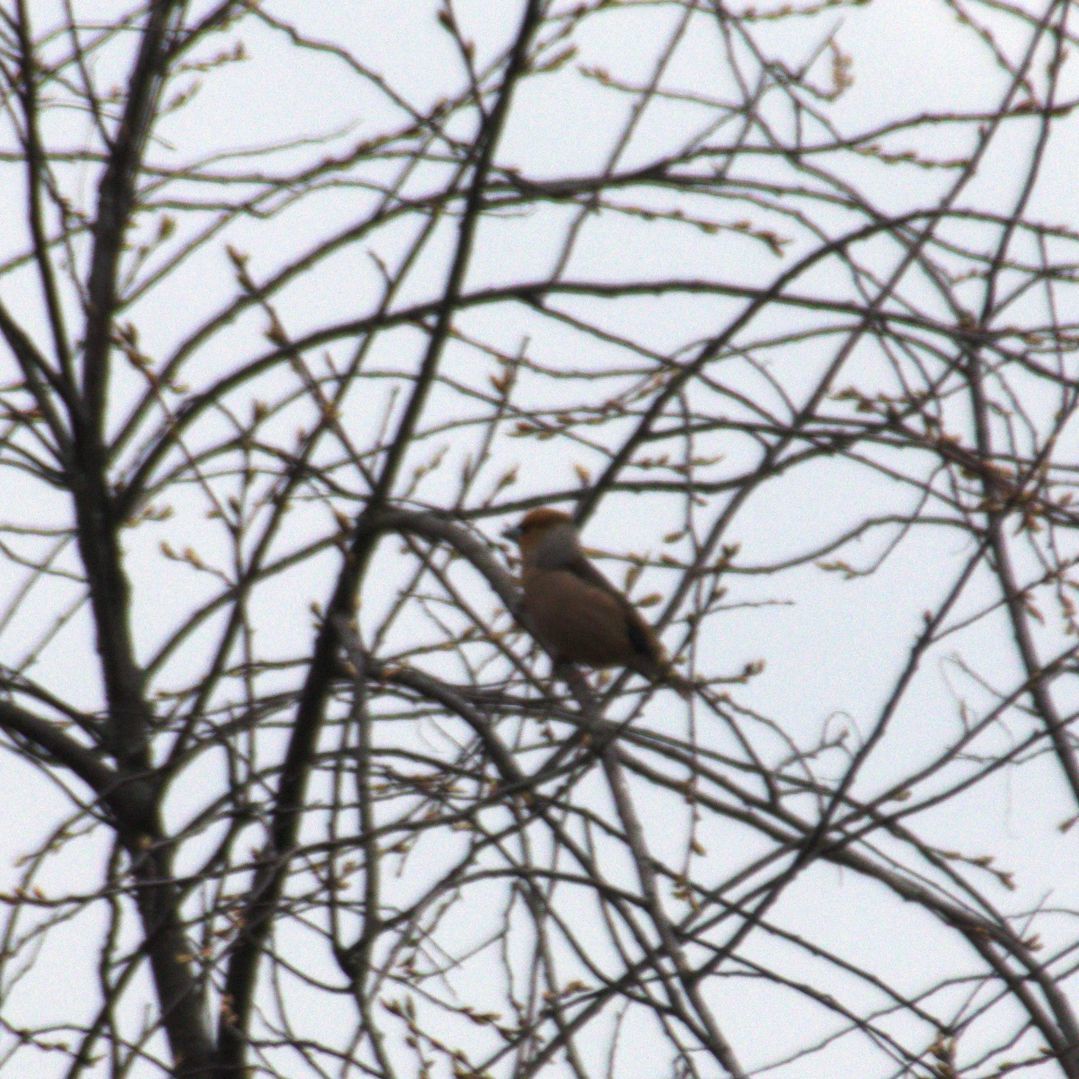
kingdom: Animalia
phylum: Chordata
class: Aves
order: Passeriformes
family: Fringillidae
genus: Coccothraustes
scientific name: Coccothraustes coccothraustes
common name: Hawfinch
